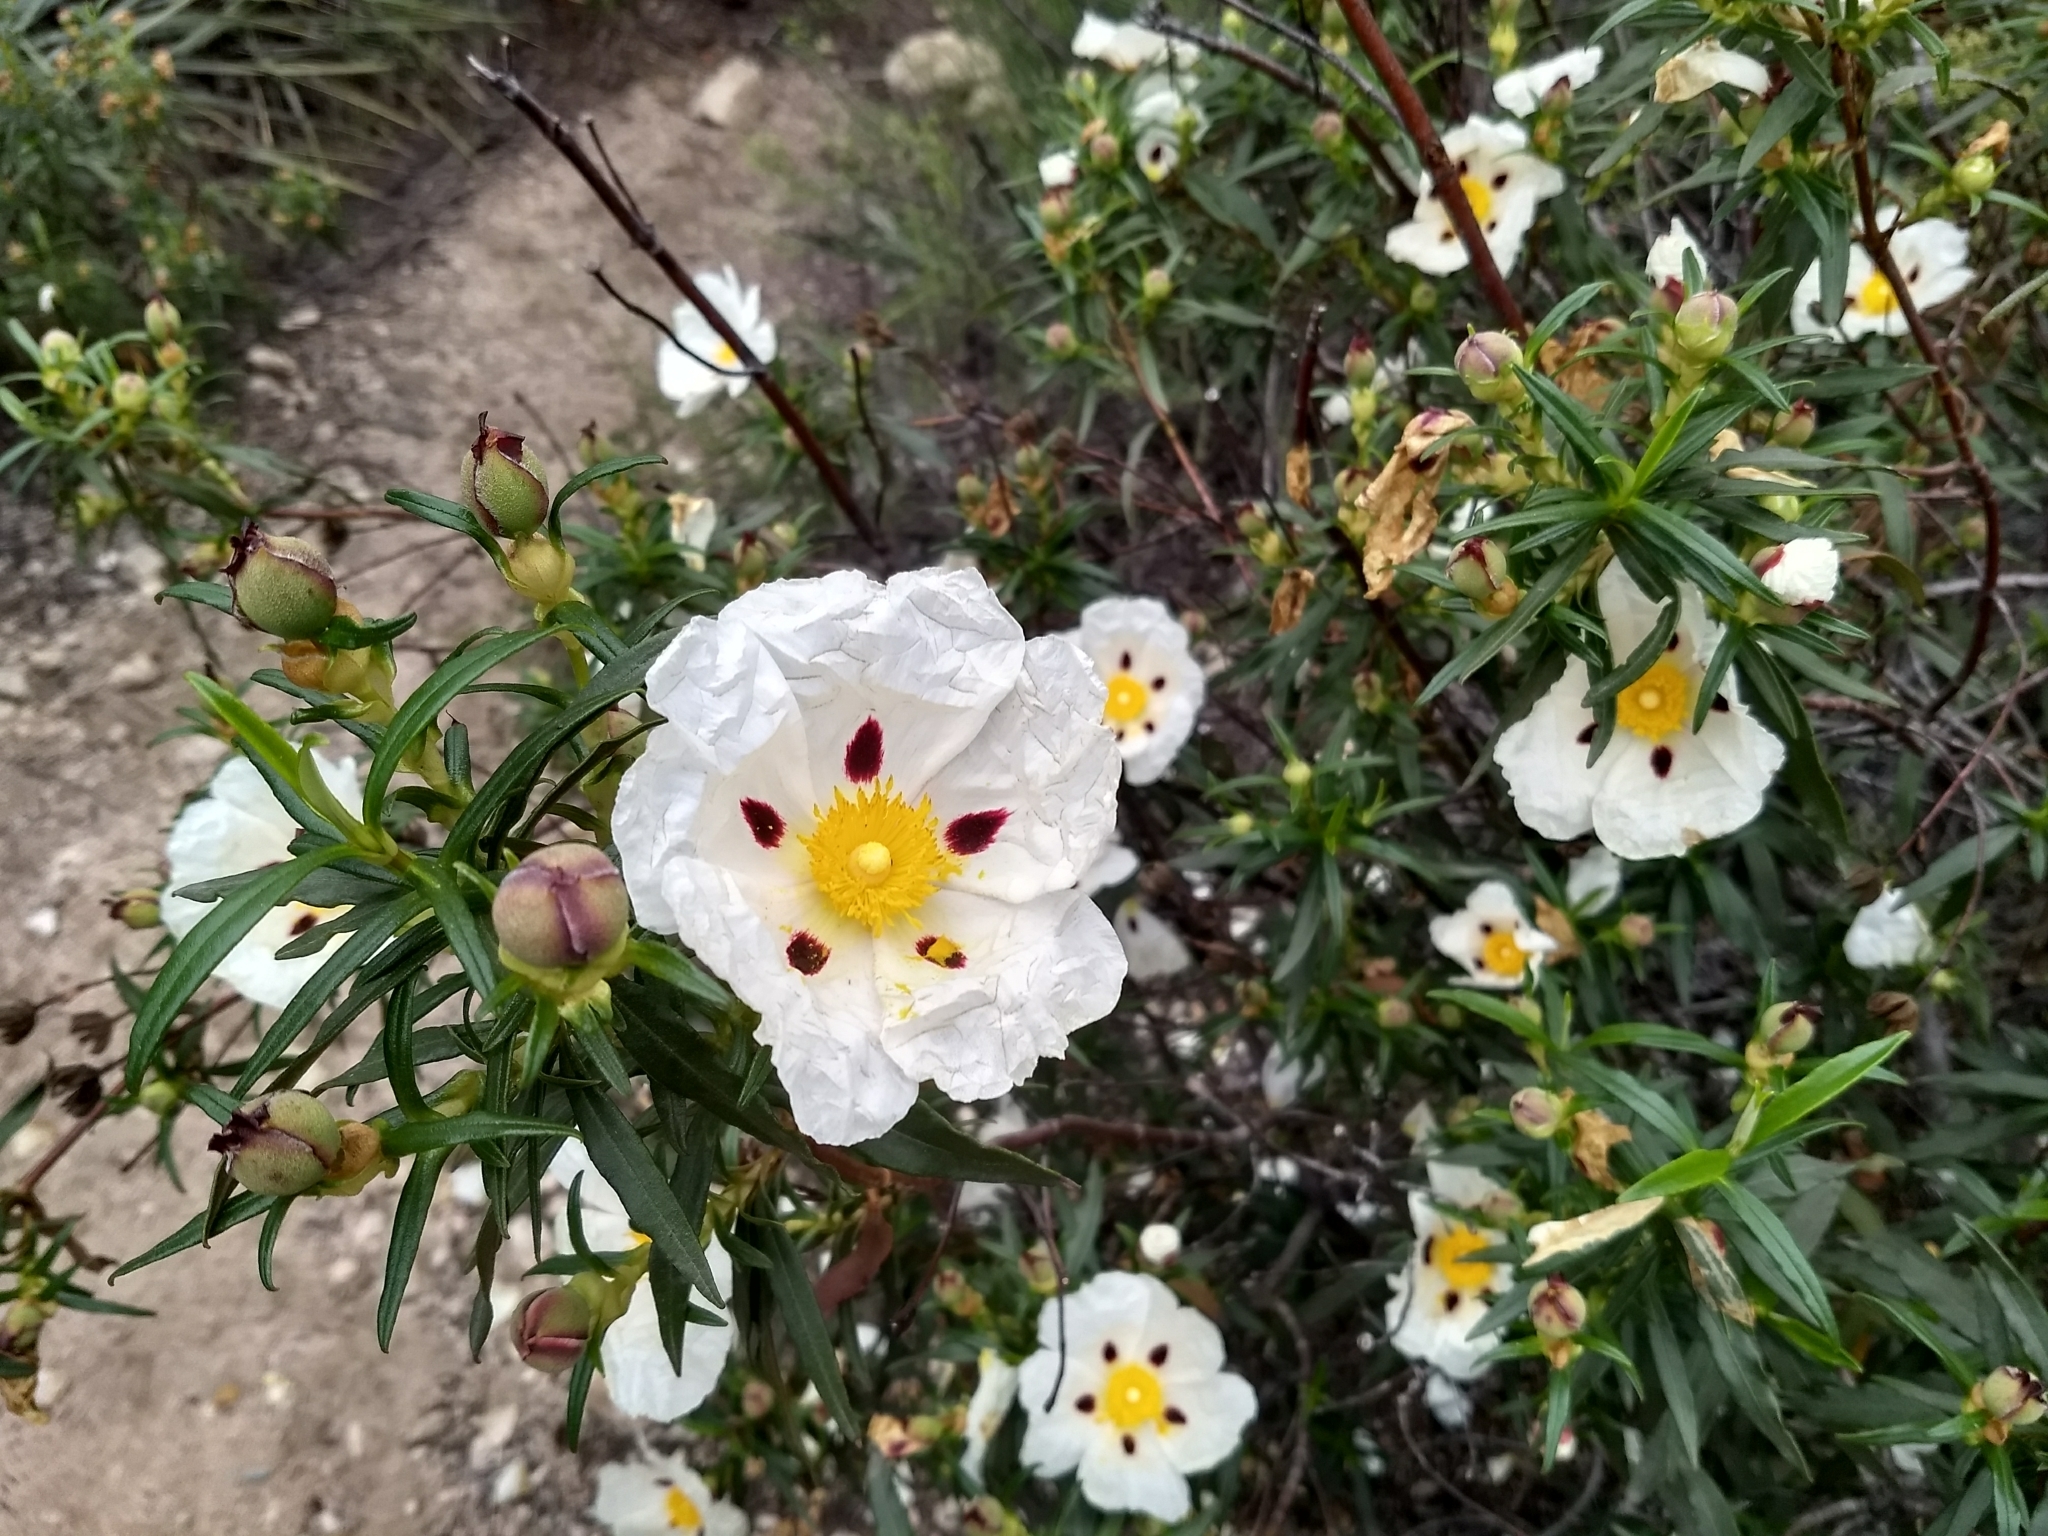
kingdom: Plantae
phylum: Tracheophyta
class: Magnoliopsida
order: Malvales
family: Cistaceae
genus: Cistus
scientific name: Cistus ladanifer
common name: Common gum cistus
